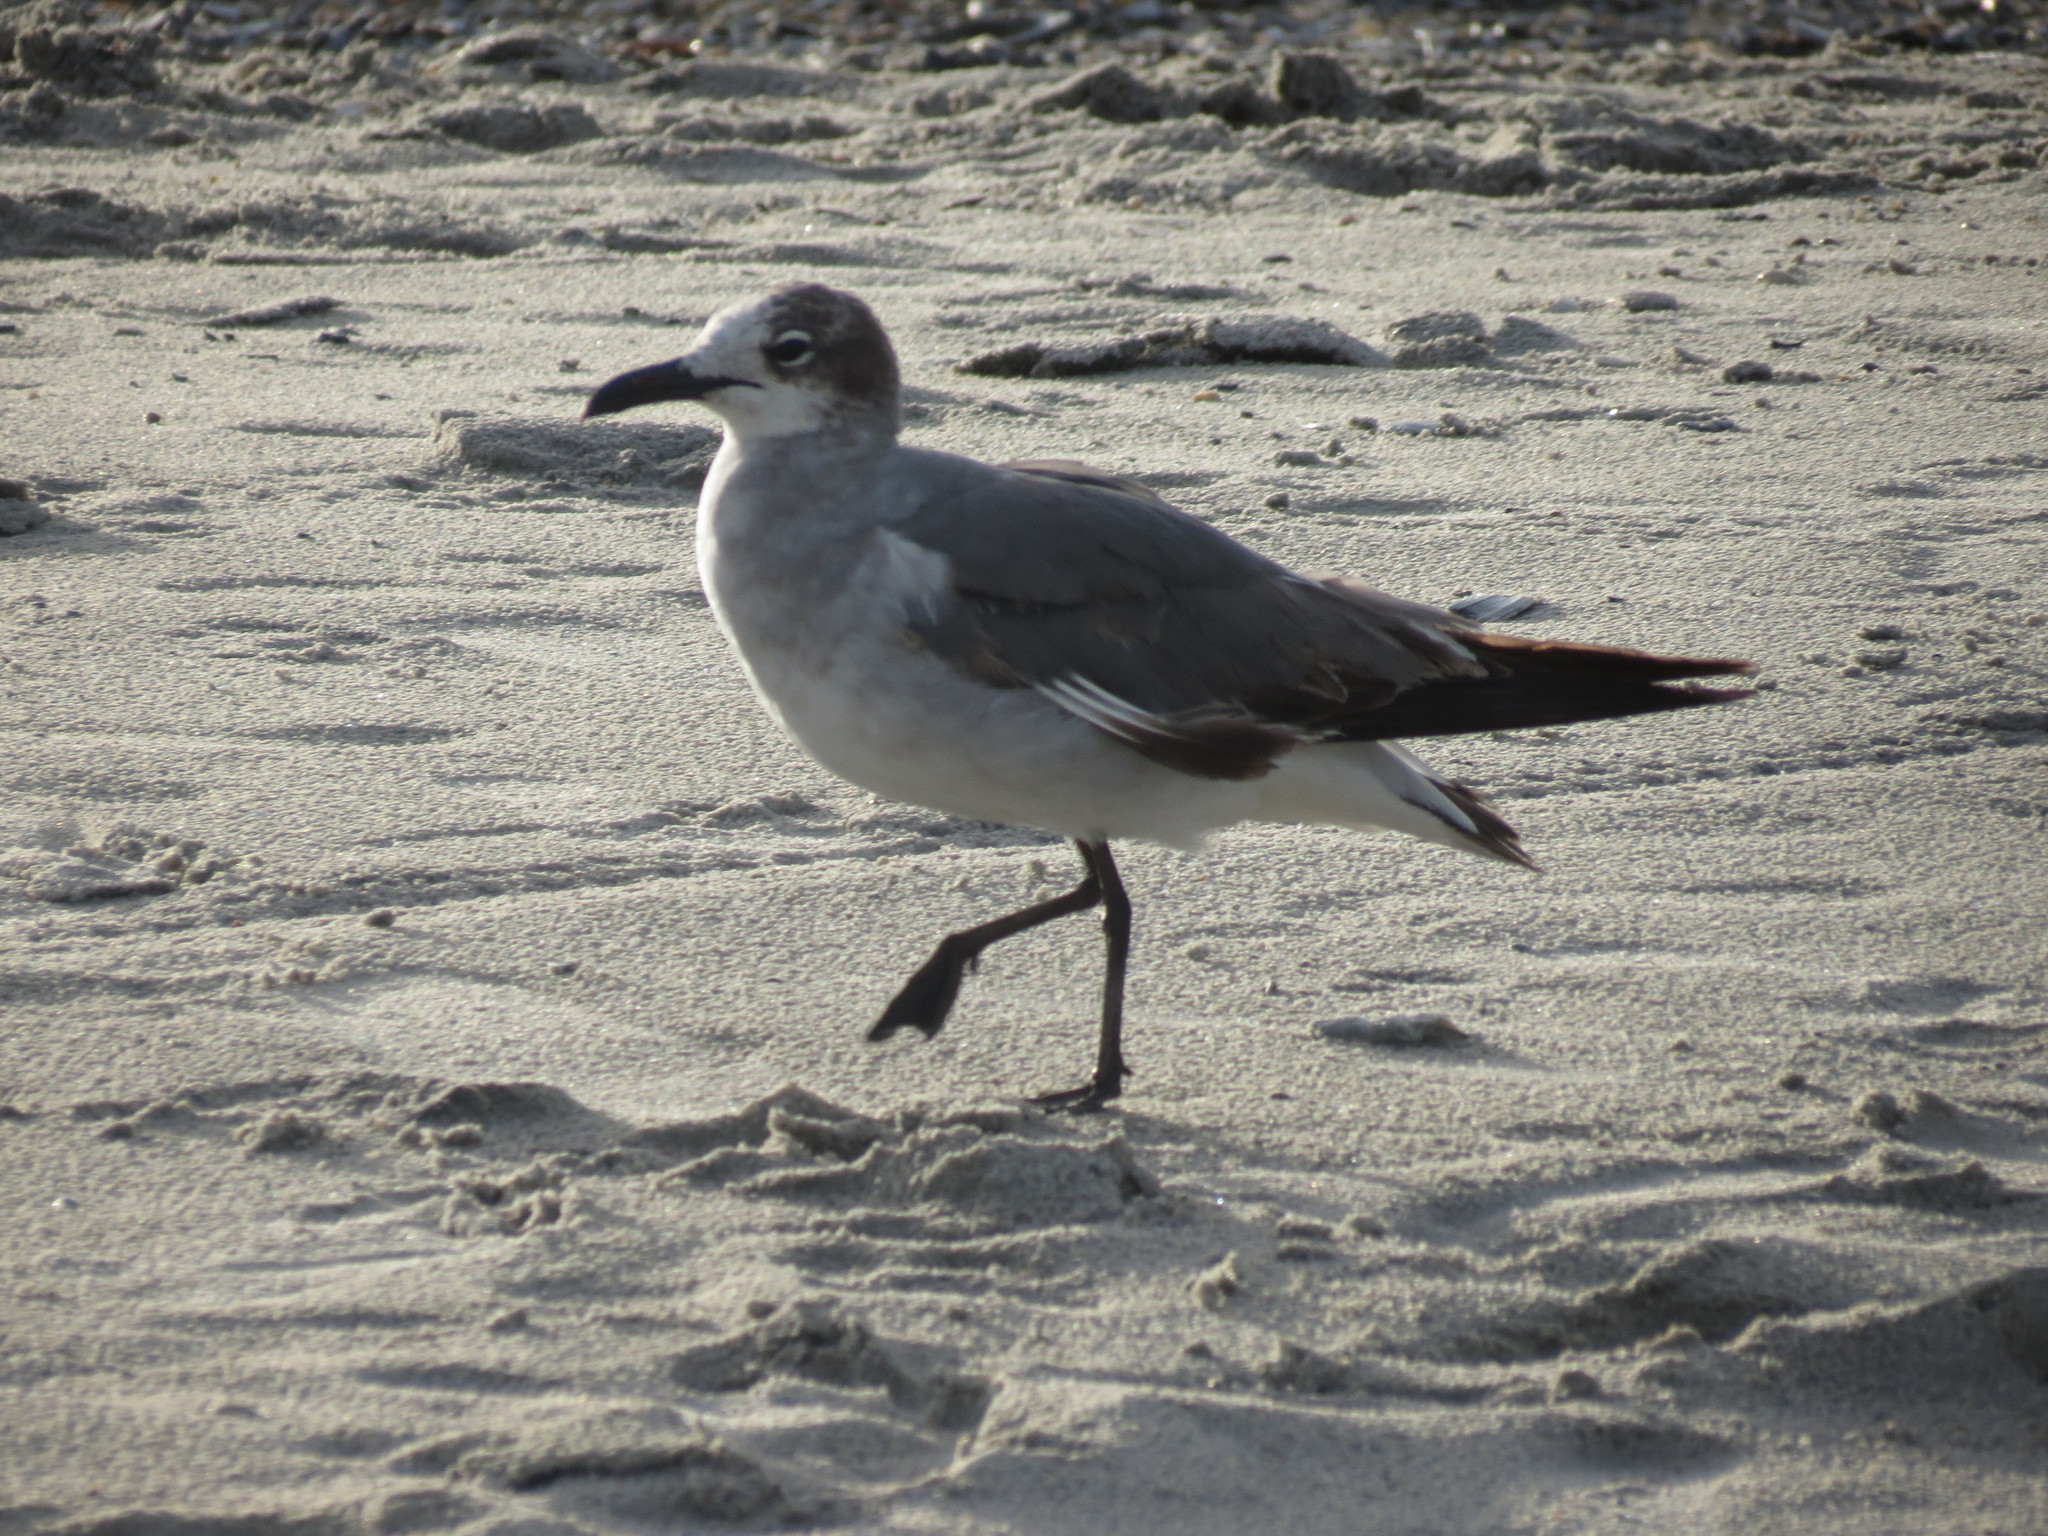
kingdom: Animalia
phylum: Chordata
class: Aves
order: Charadriiformes
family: Laridae
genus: Leucophaeus
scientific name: Leucophaeus atricilla
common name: Laughing gull
